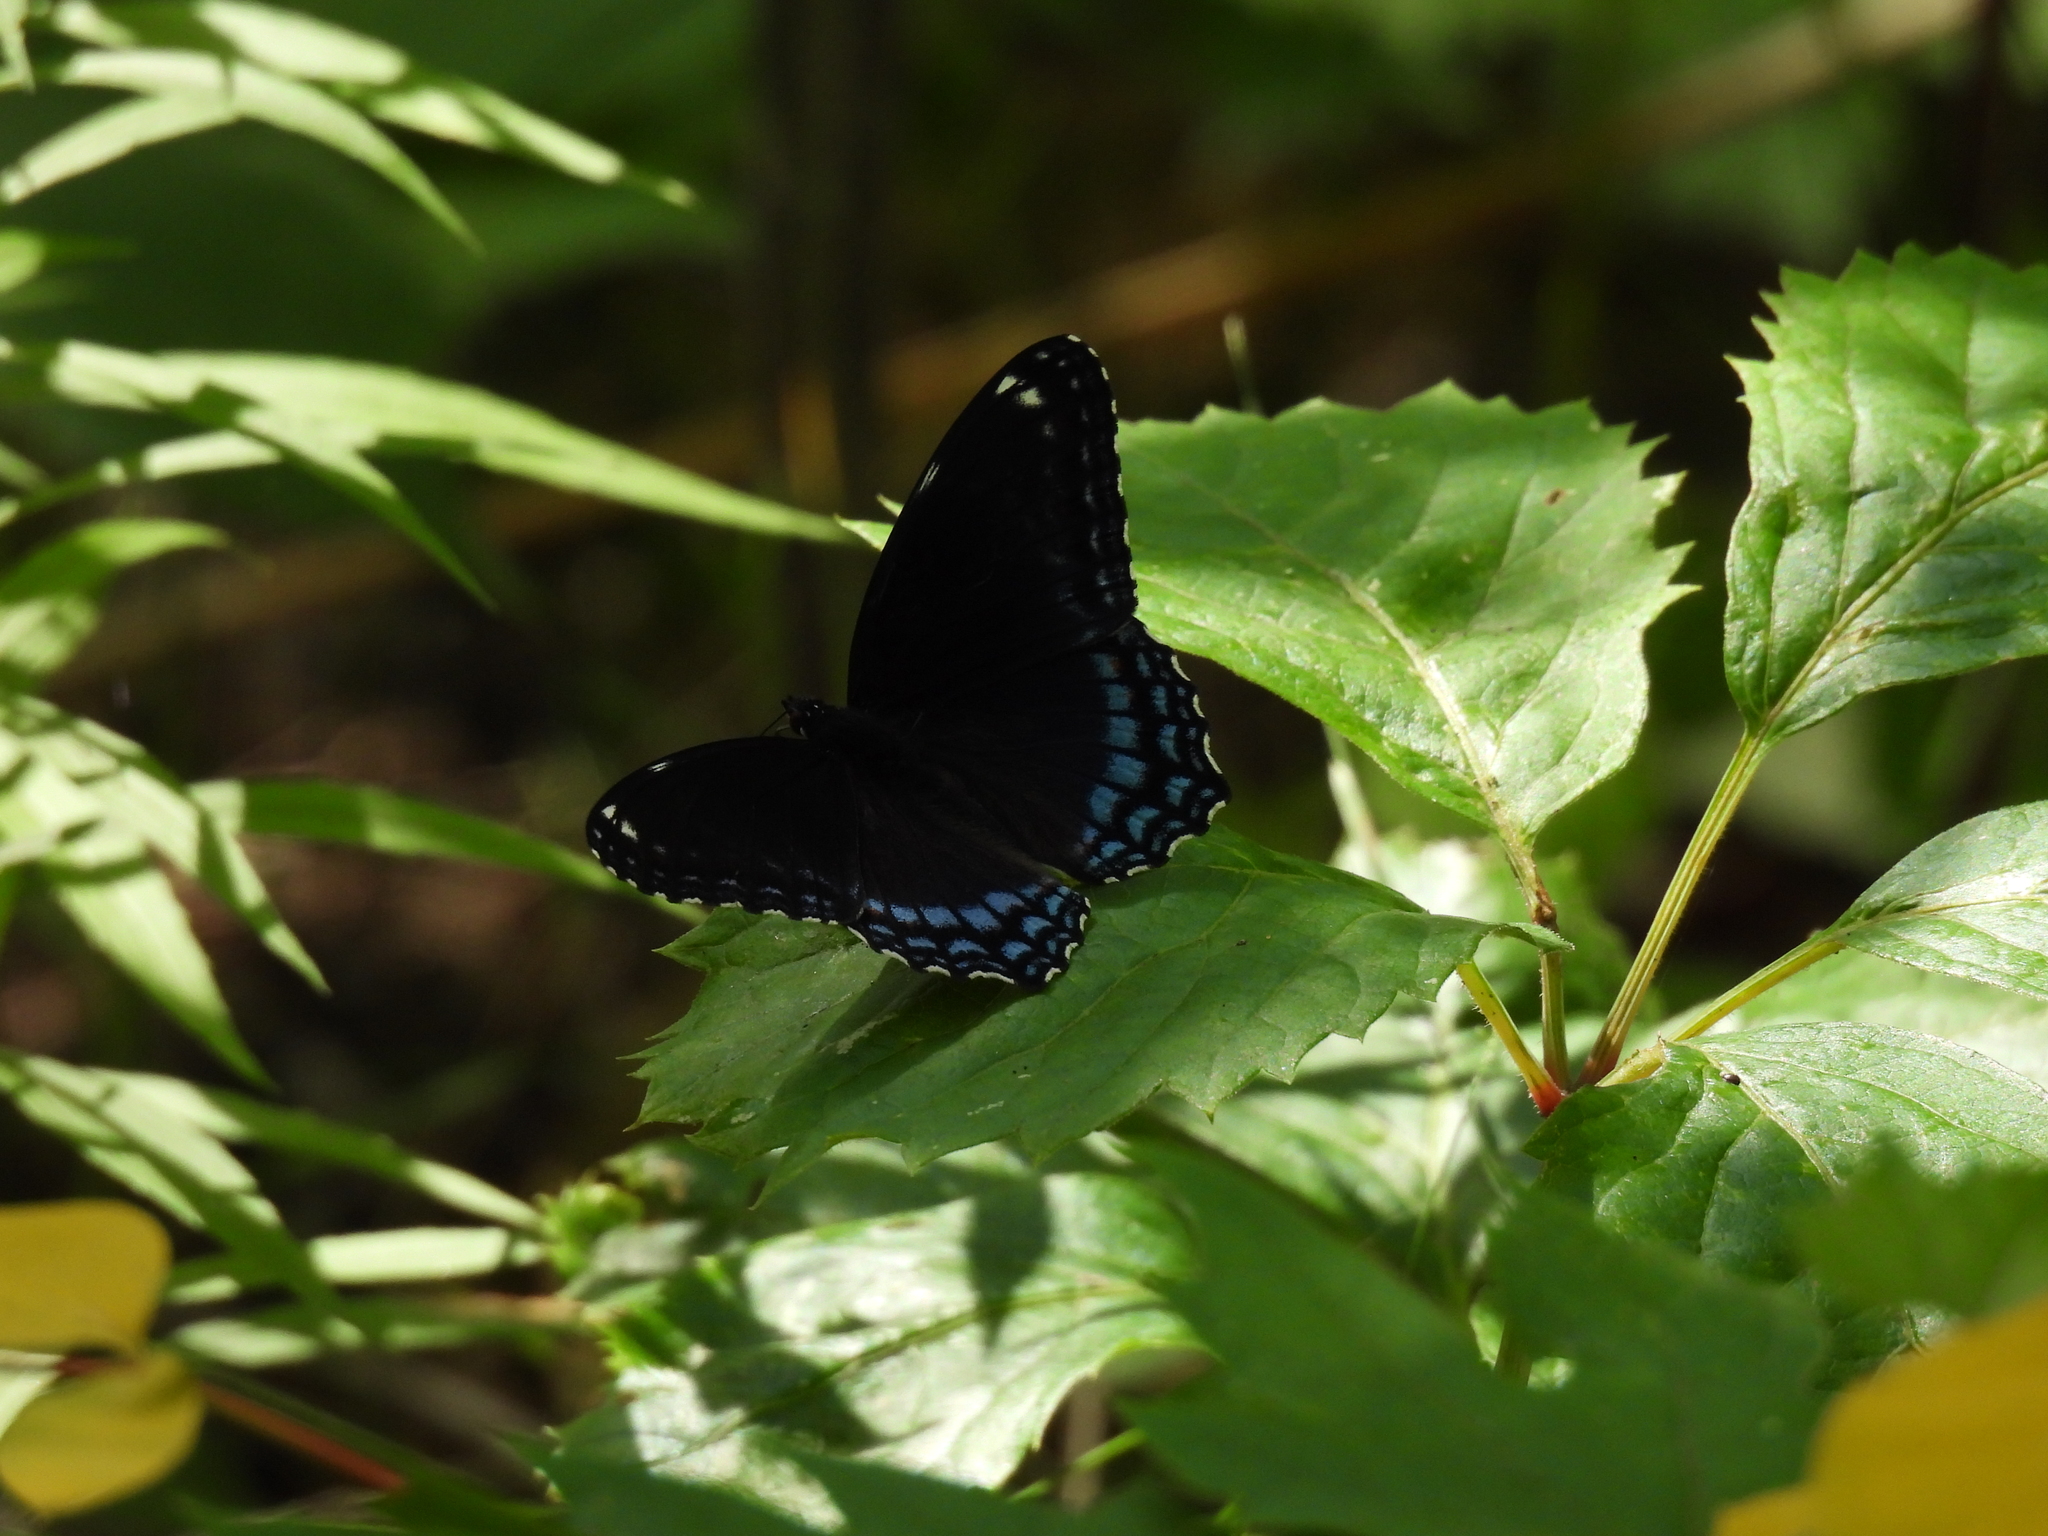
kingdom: Animalia
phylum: Arthropoda
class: Insecta
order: Lepidoptera
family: Nymphalidae
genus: Limenitis
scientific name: Limenitis astyanax
